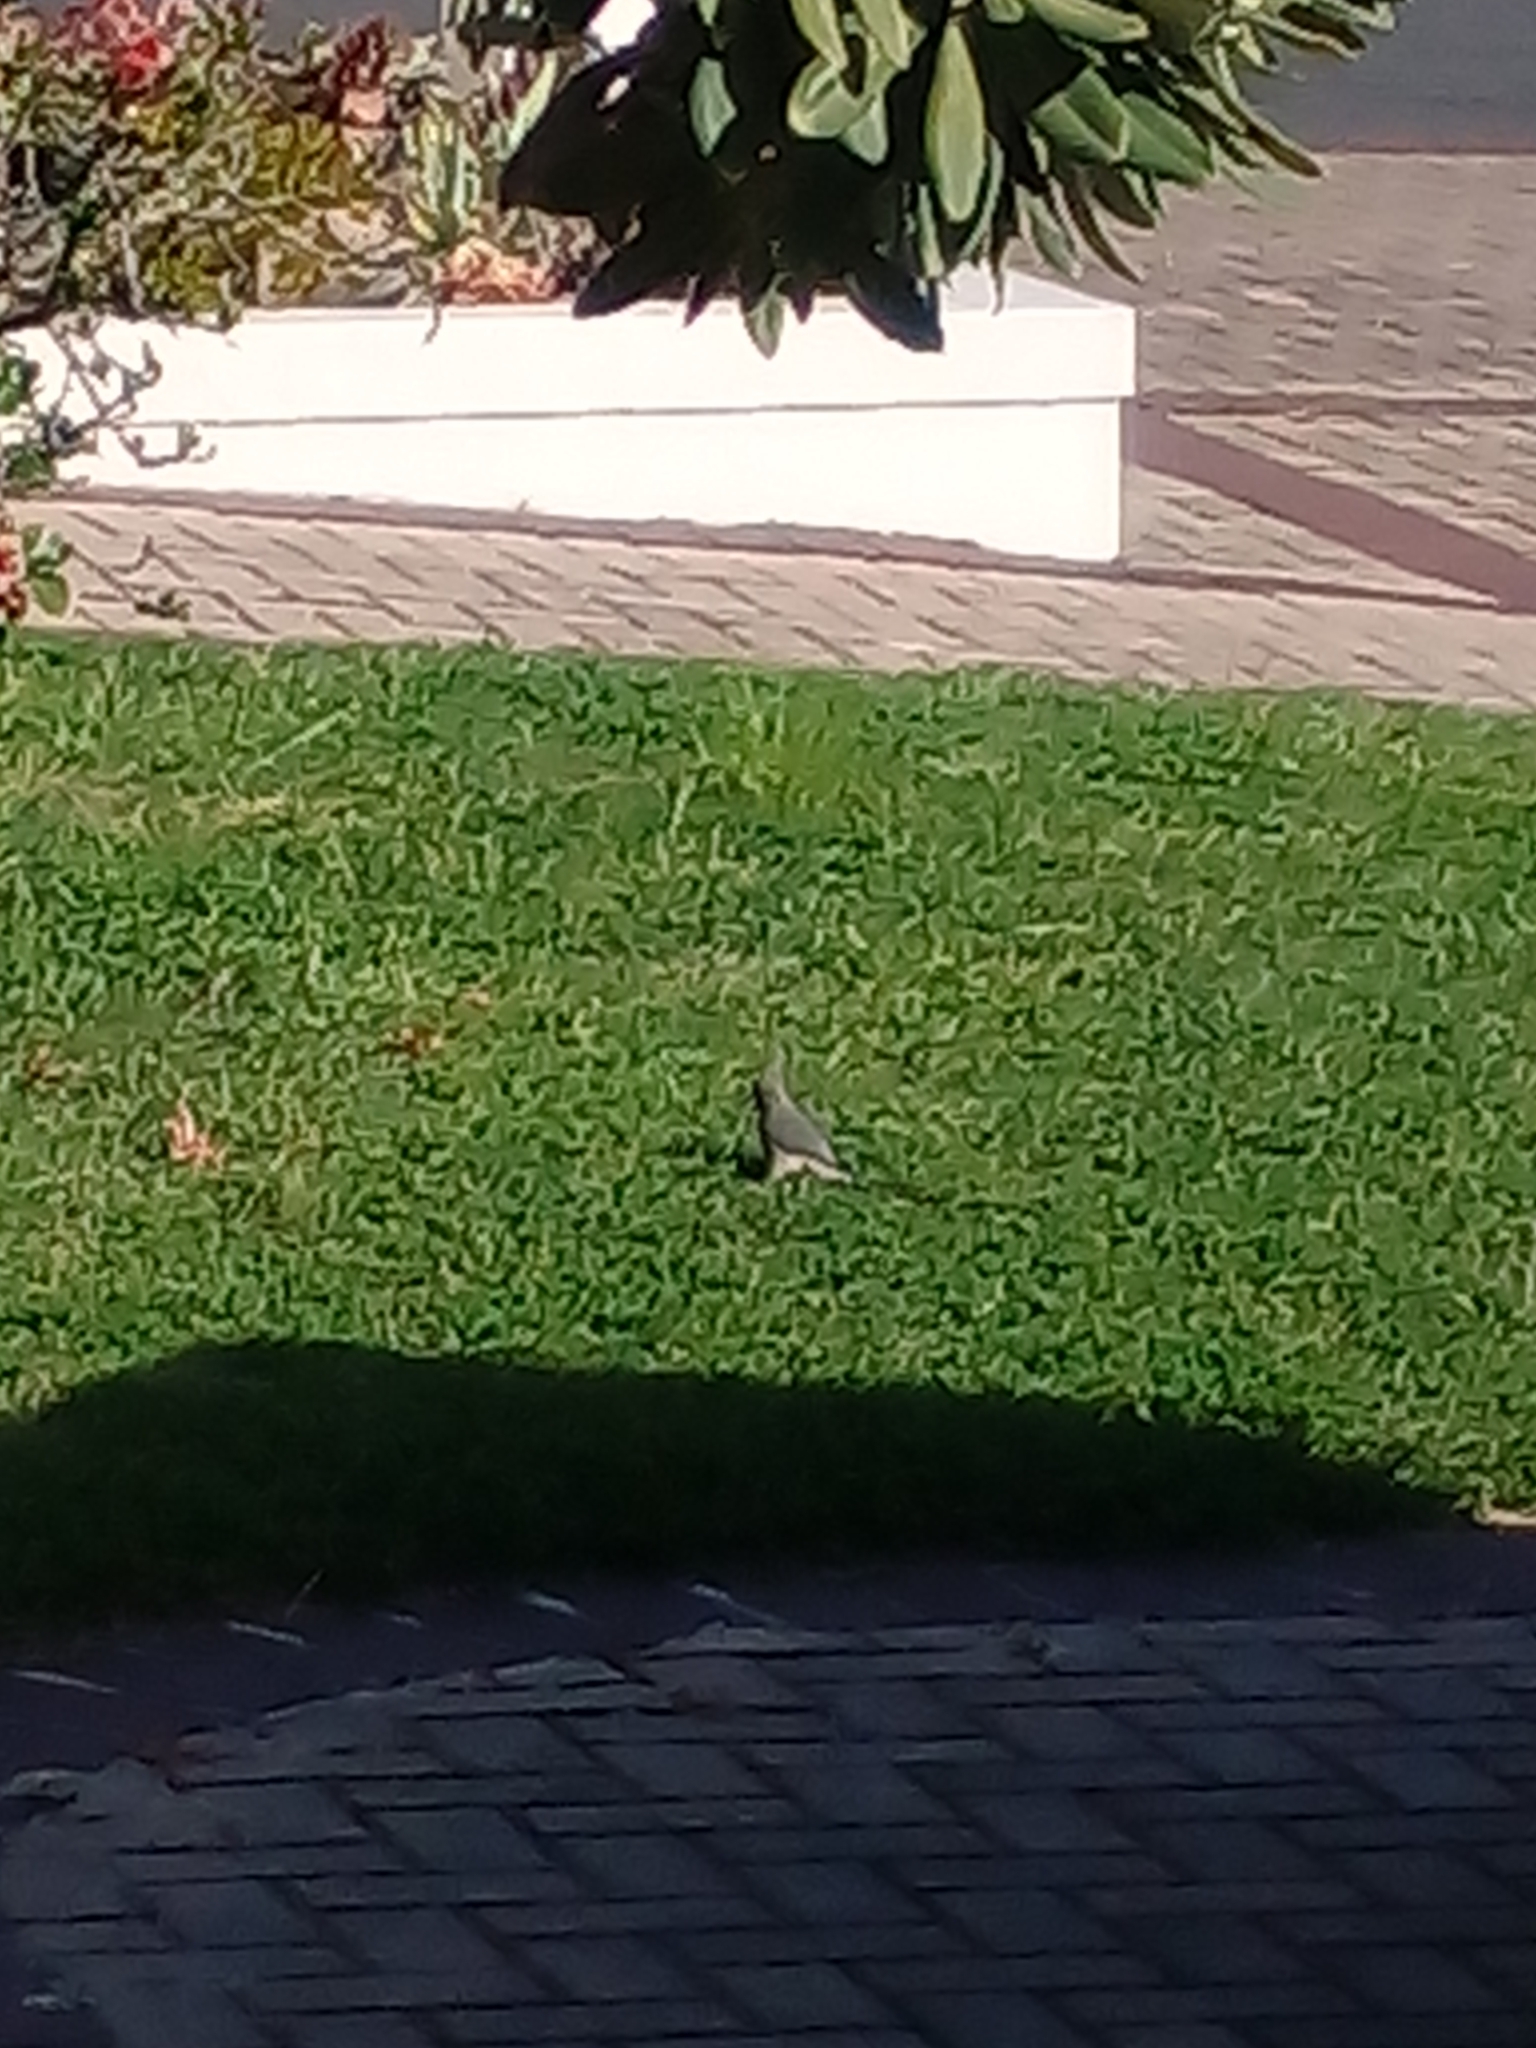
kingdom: Animalia
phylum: Chordata
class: Aves
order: Coliiformes
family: Coliidae
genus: Colius
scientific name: Colius colius
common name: White-backed mousebird
